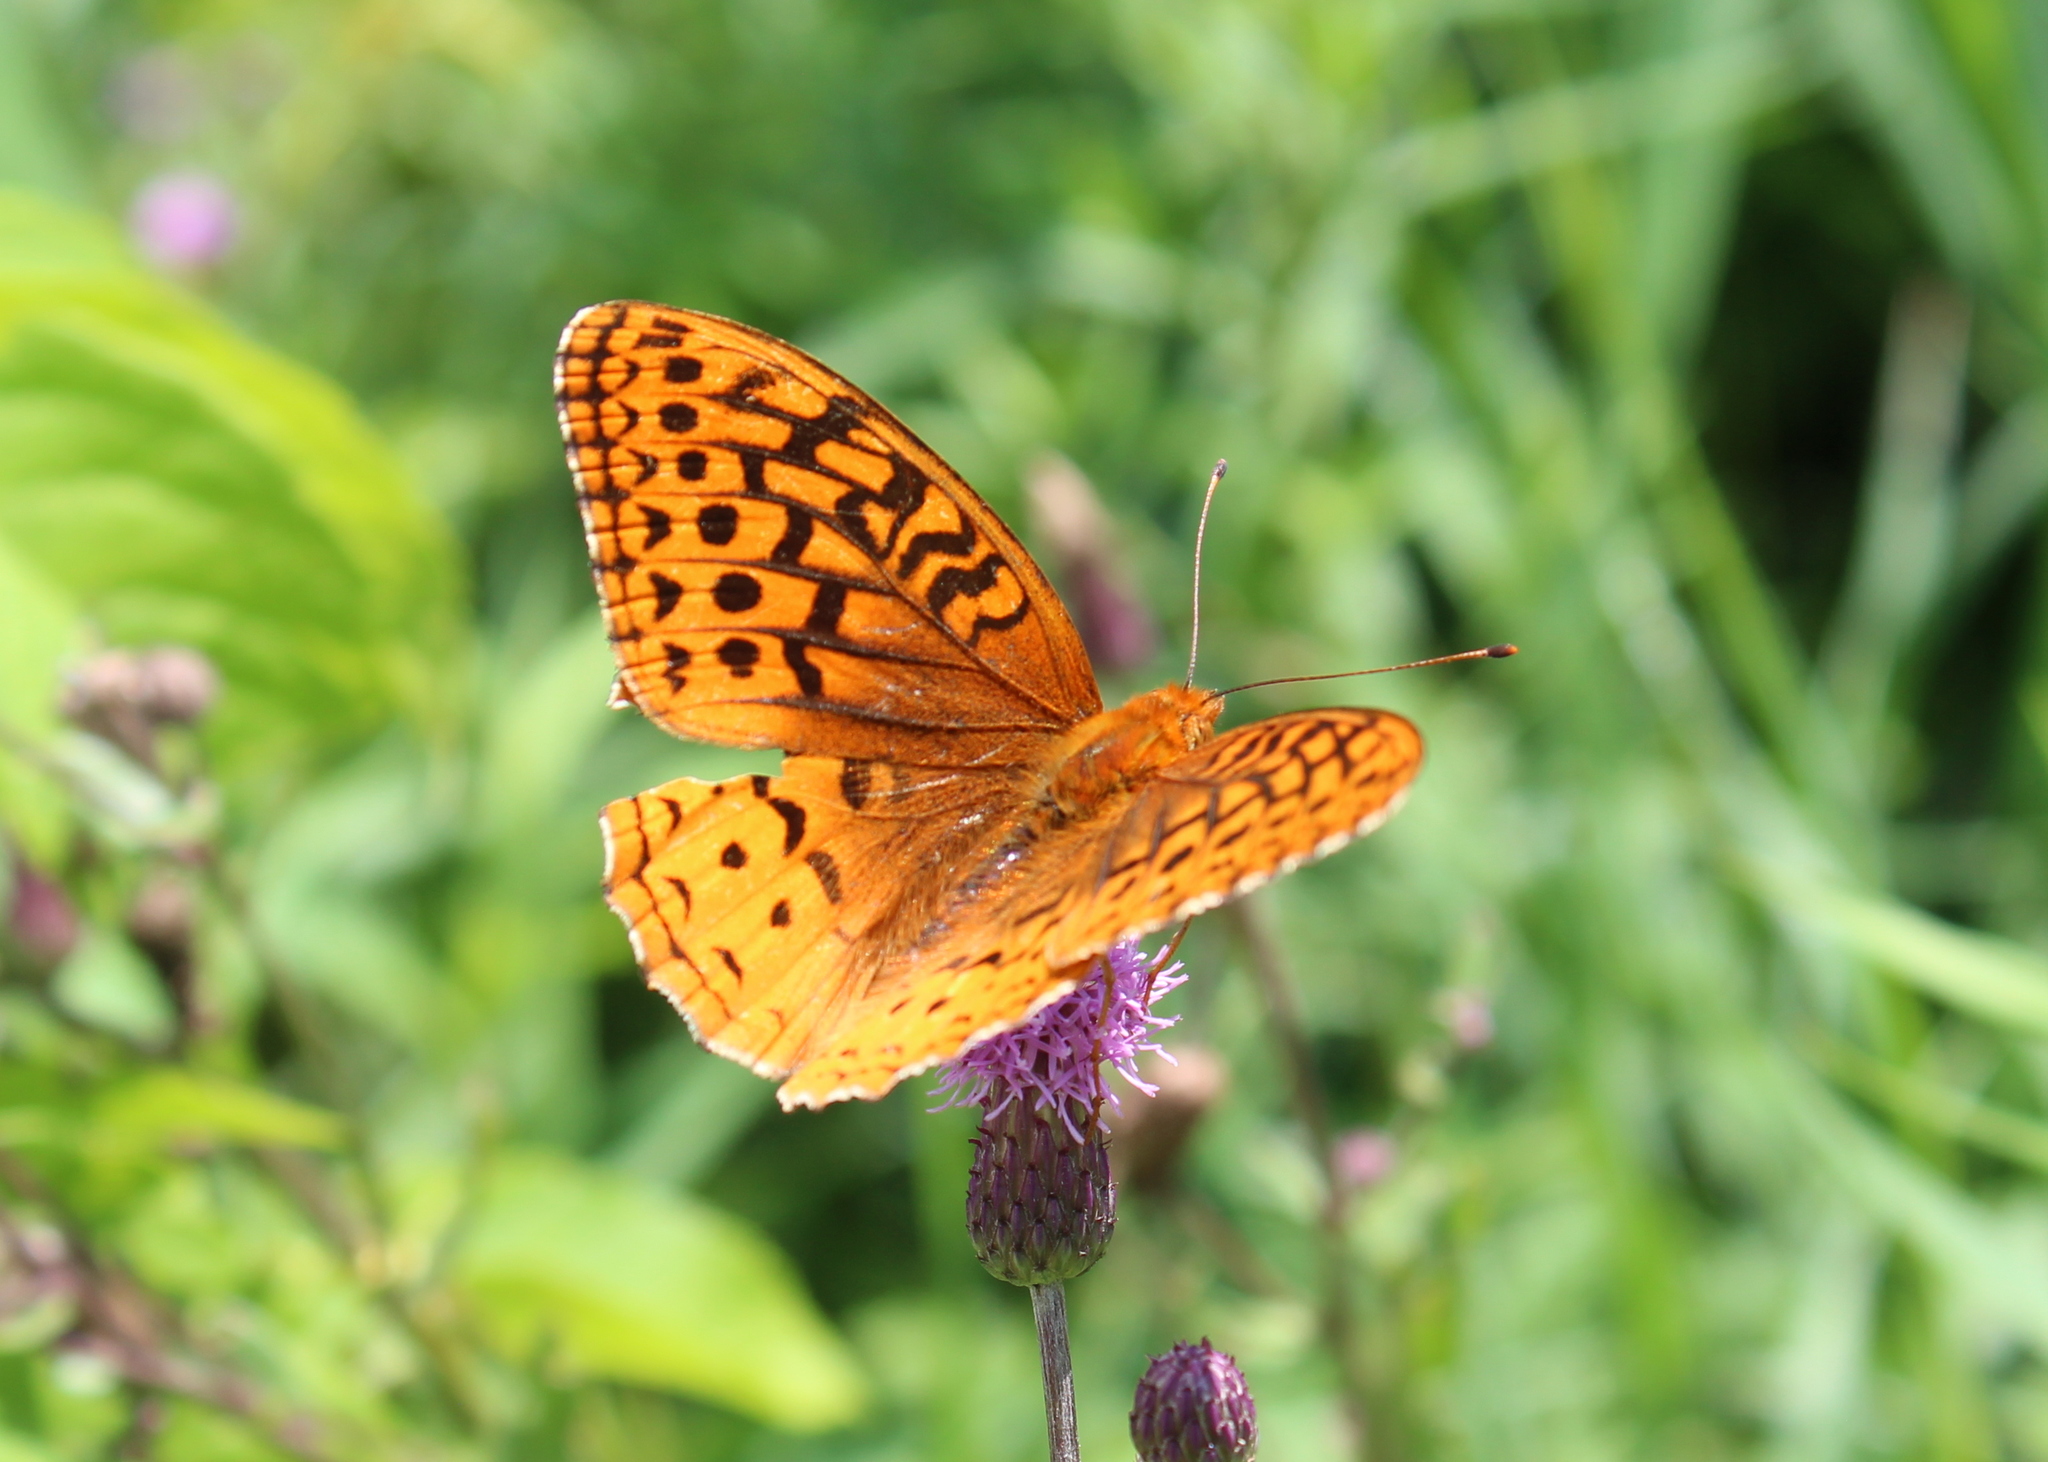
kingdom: Animalia
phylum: Arthropoda
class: Insecta
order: Lepidoptera
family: Nymphalidae
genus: Speyeria
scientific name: Speyeria cybele
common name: Great spangled fritillary
